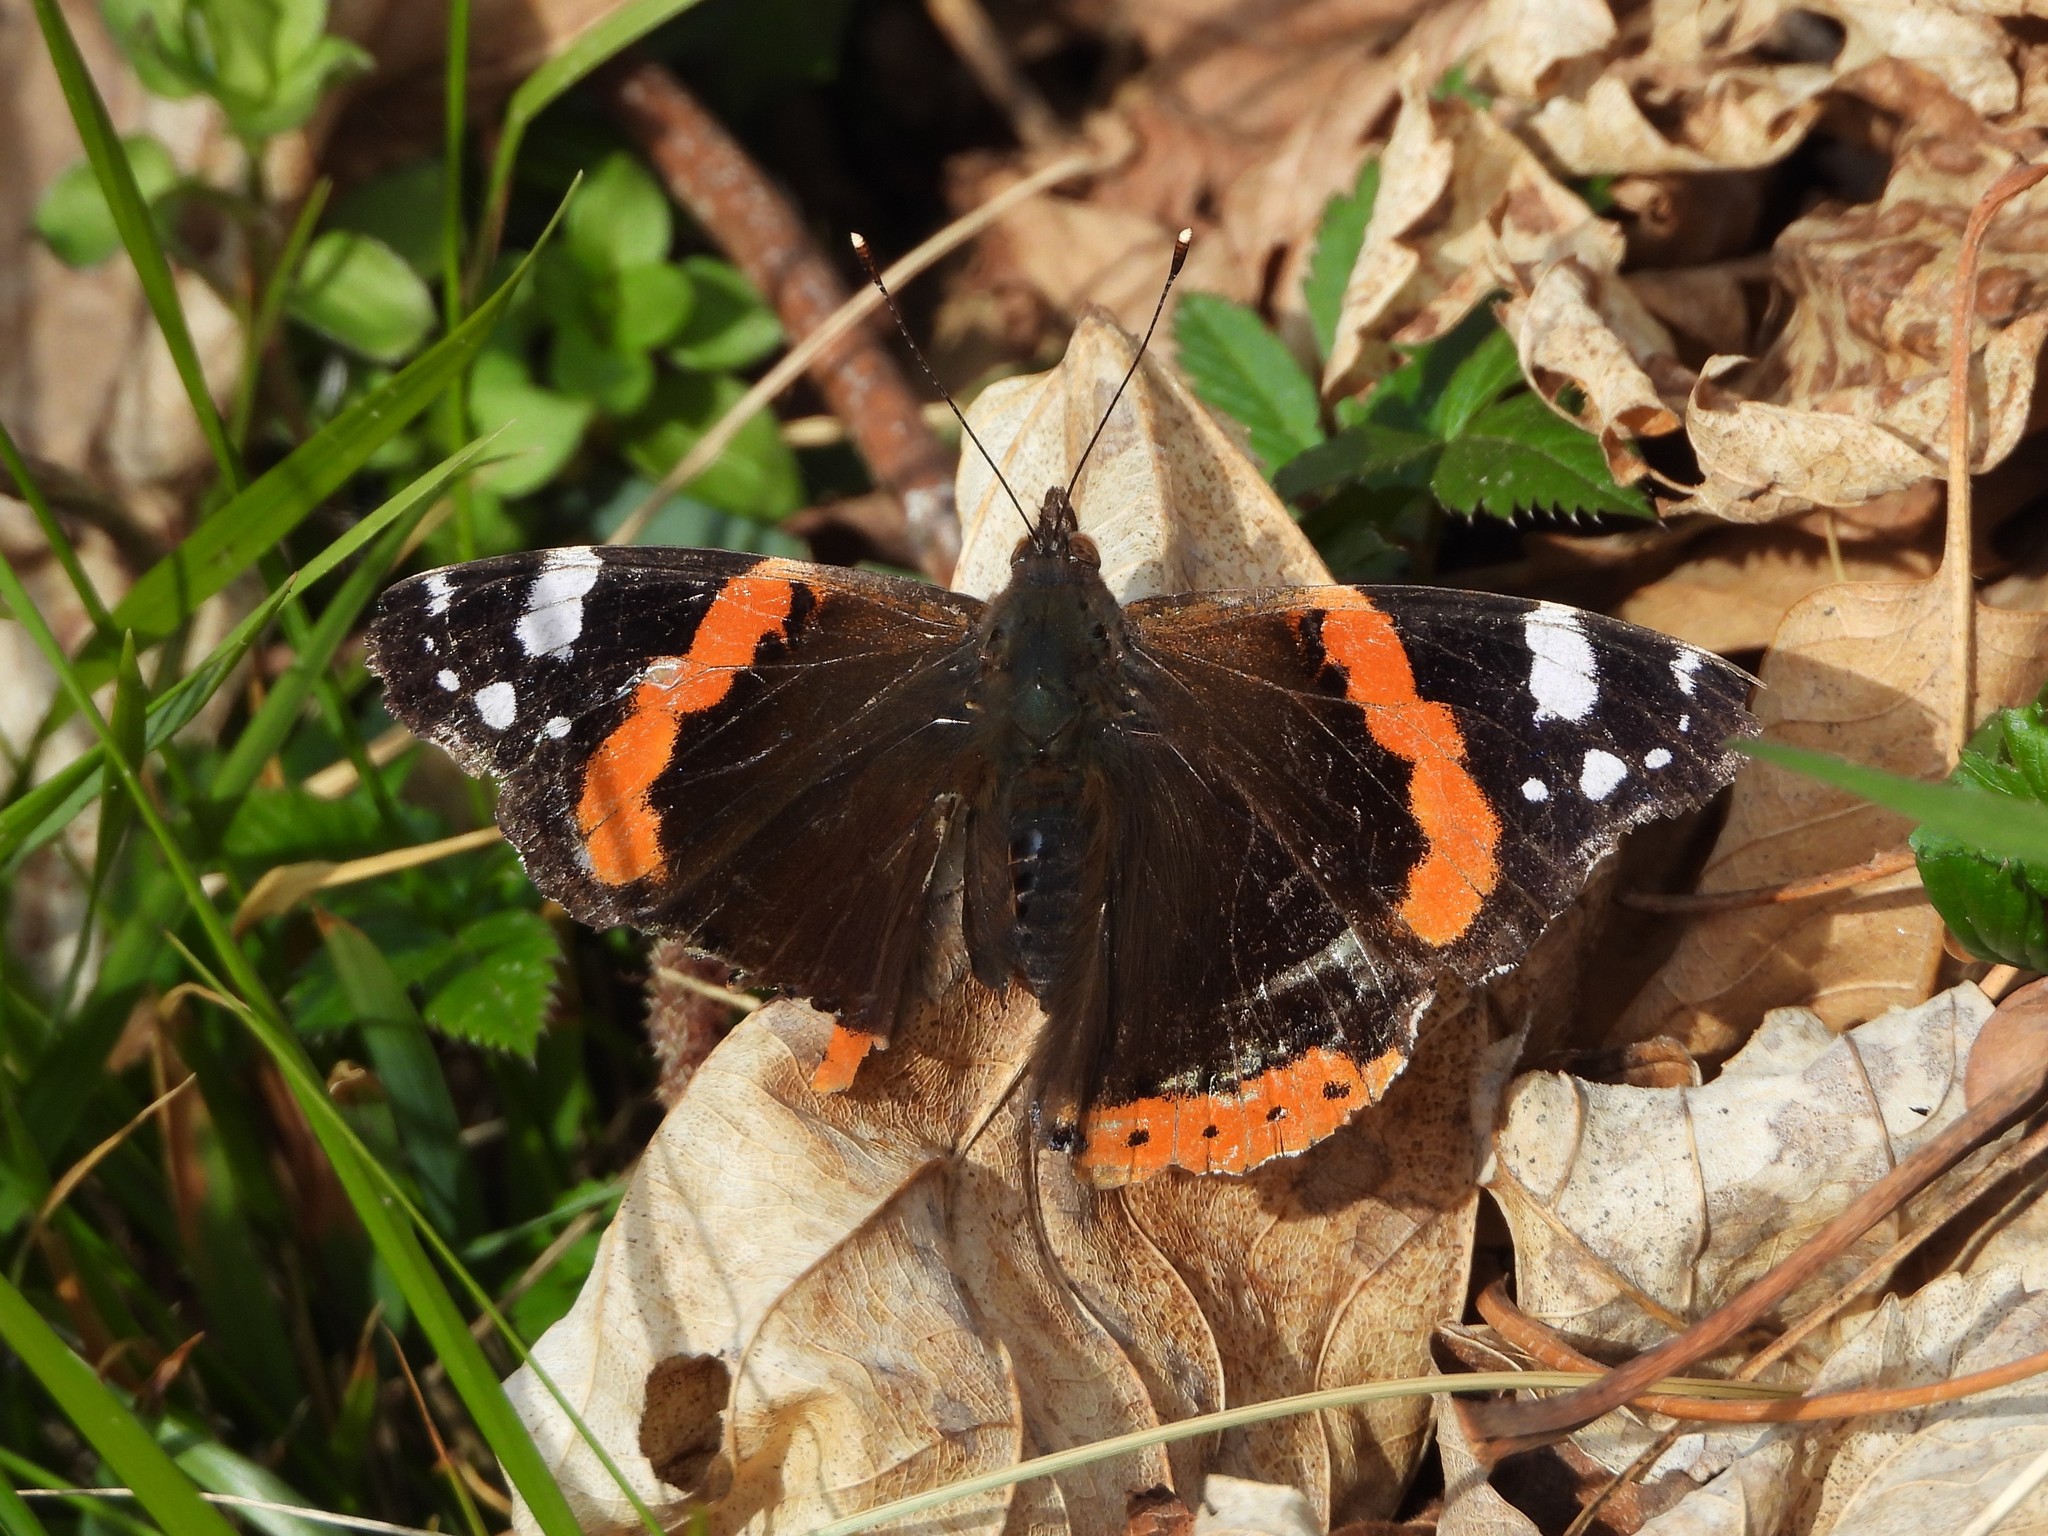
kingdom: Animalia
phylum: Arthropoda
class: Insecta
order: Lepidoptera
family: Nymphalidae
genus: Vanessa
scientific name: Vanessa atalanta
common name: Red admiral
